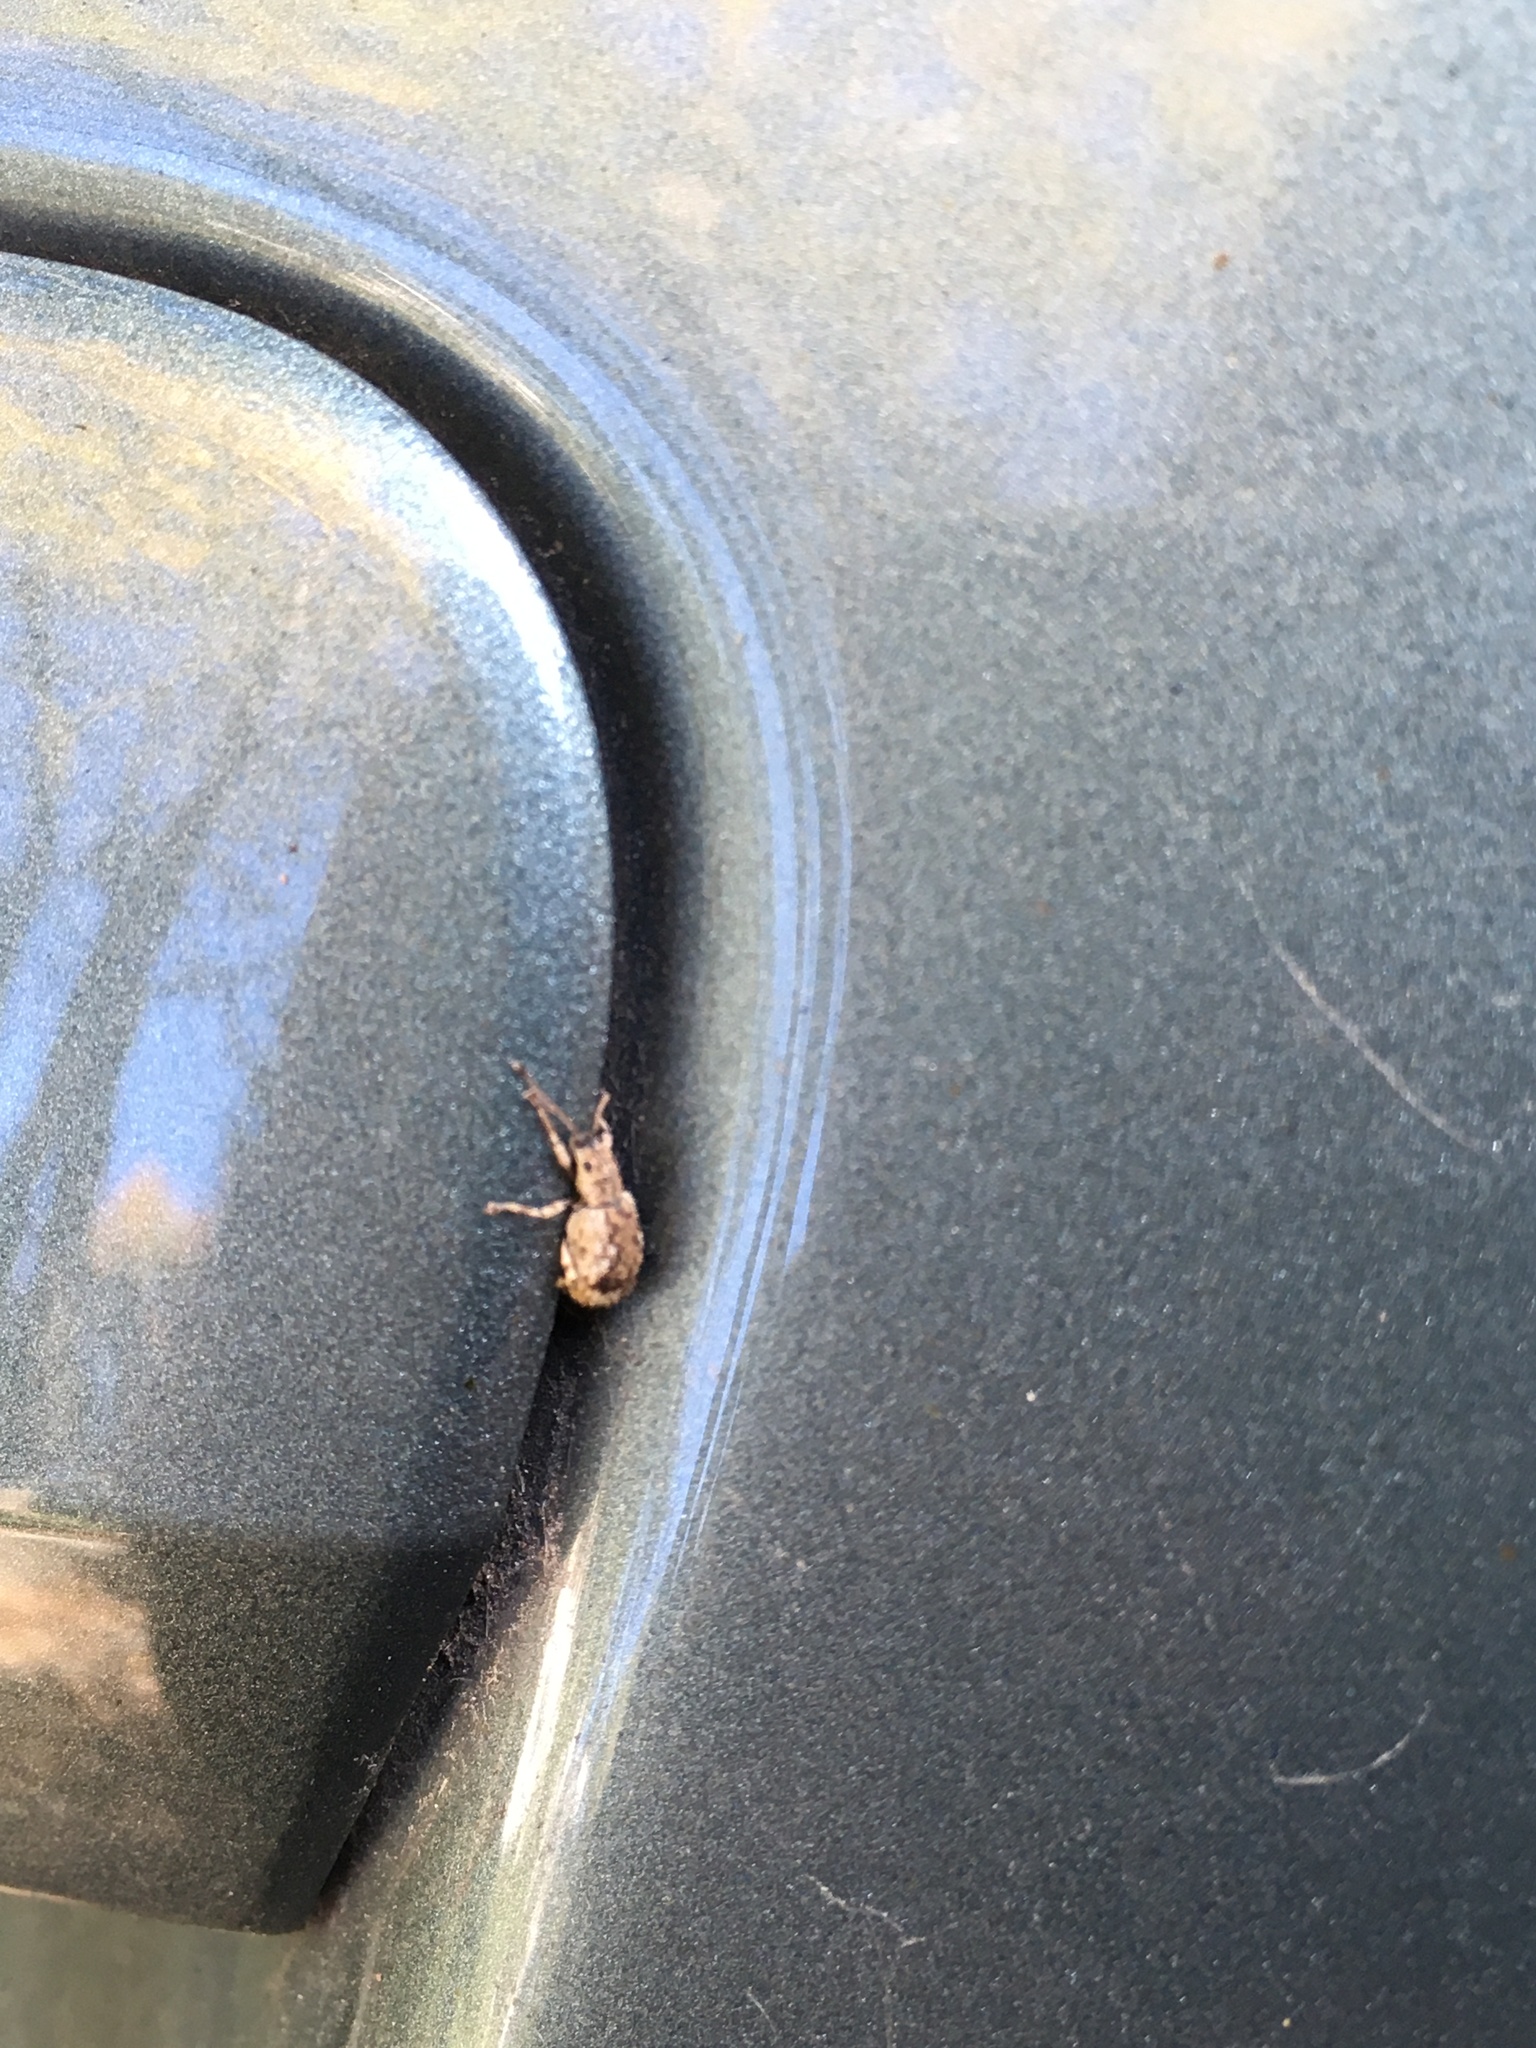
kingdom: Animalia
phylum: Arthropoda
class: Insecta
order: Coleoptera
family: Curculionidae
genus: Pseudoedophrys
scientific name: Pseudoedophrys hilleri
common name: Weevil
